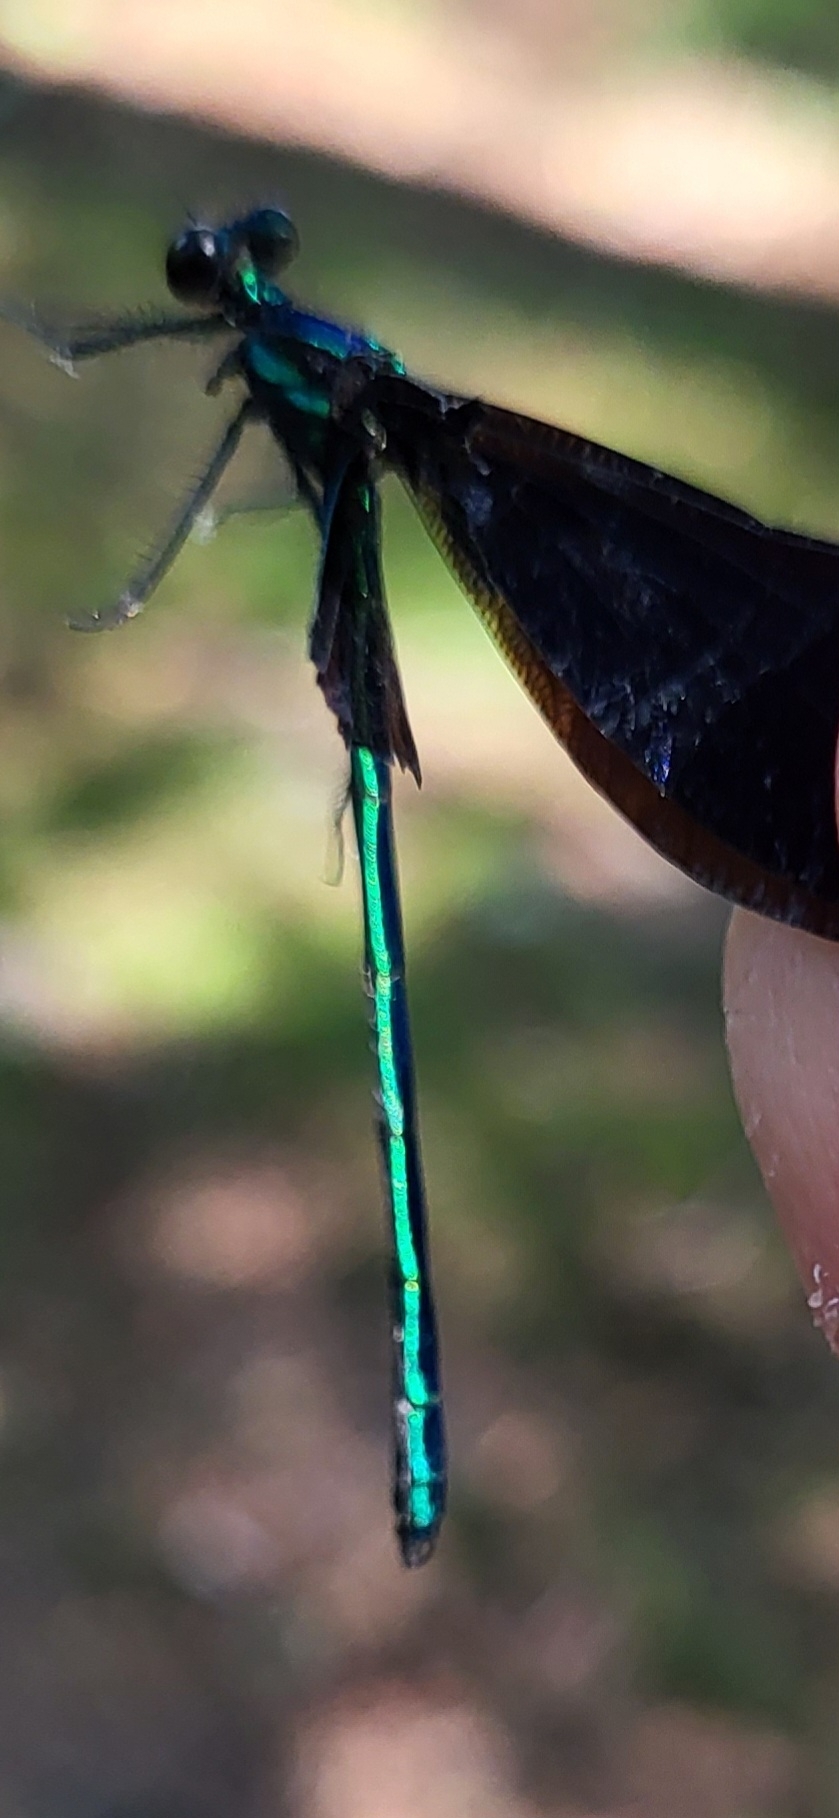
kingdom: Animalia
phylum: Arthropoda
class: Insecta
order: Odonata
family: Calopterygidae
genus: Calopteryx
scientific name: Calopteryx maculata
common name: Ebony jewelwing
